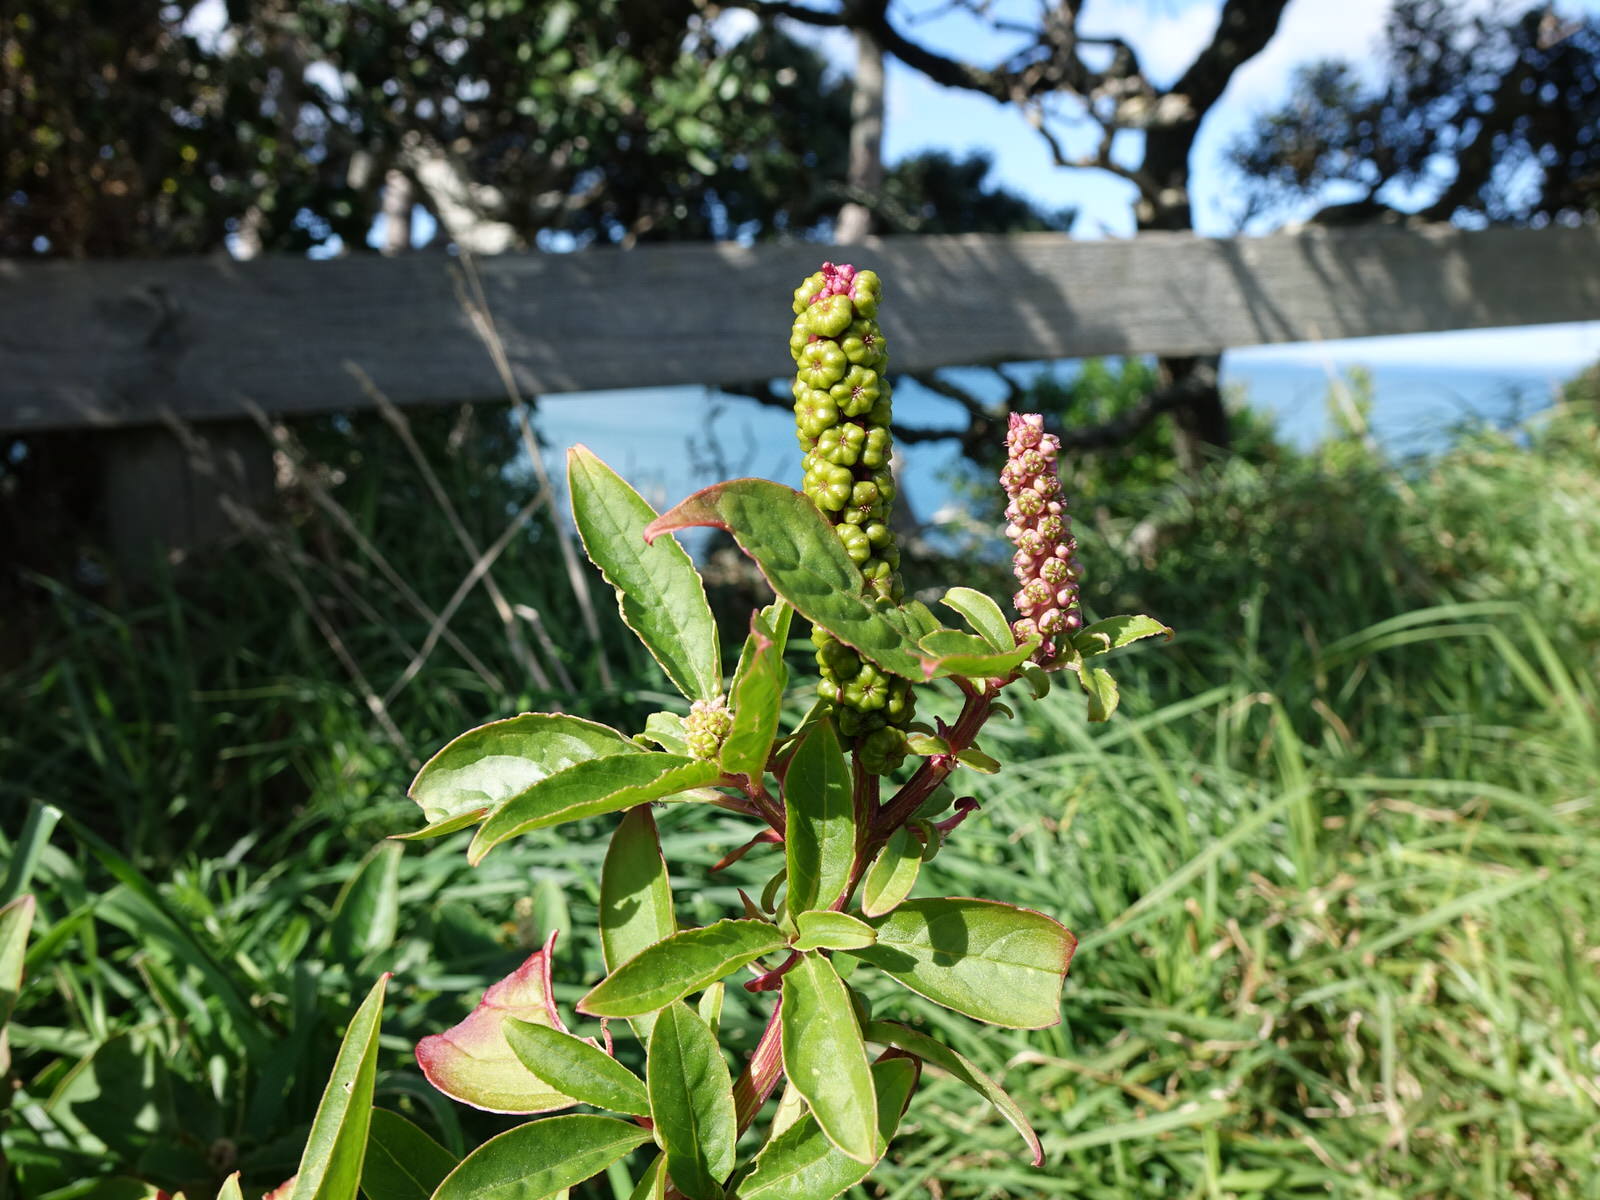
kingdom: Plantae
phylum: Tracheophyta
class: Magnoliopsida
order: Caryophyllales
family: Phytolaccaceae
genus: Phytolacca
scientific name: Phytolacca icosandra
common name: Button pokeweed
